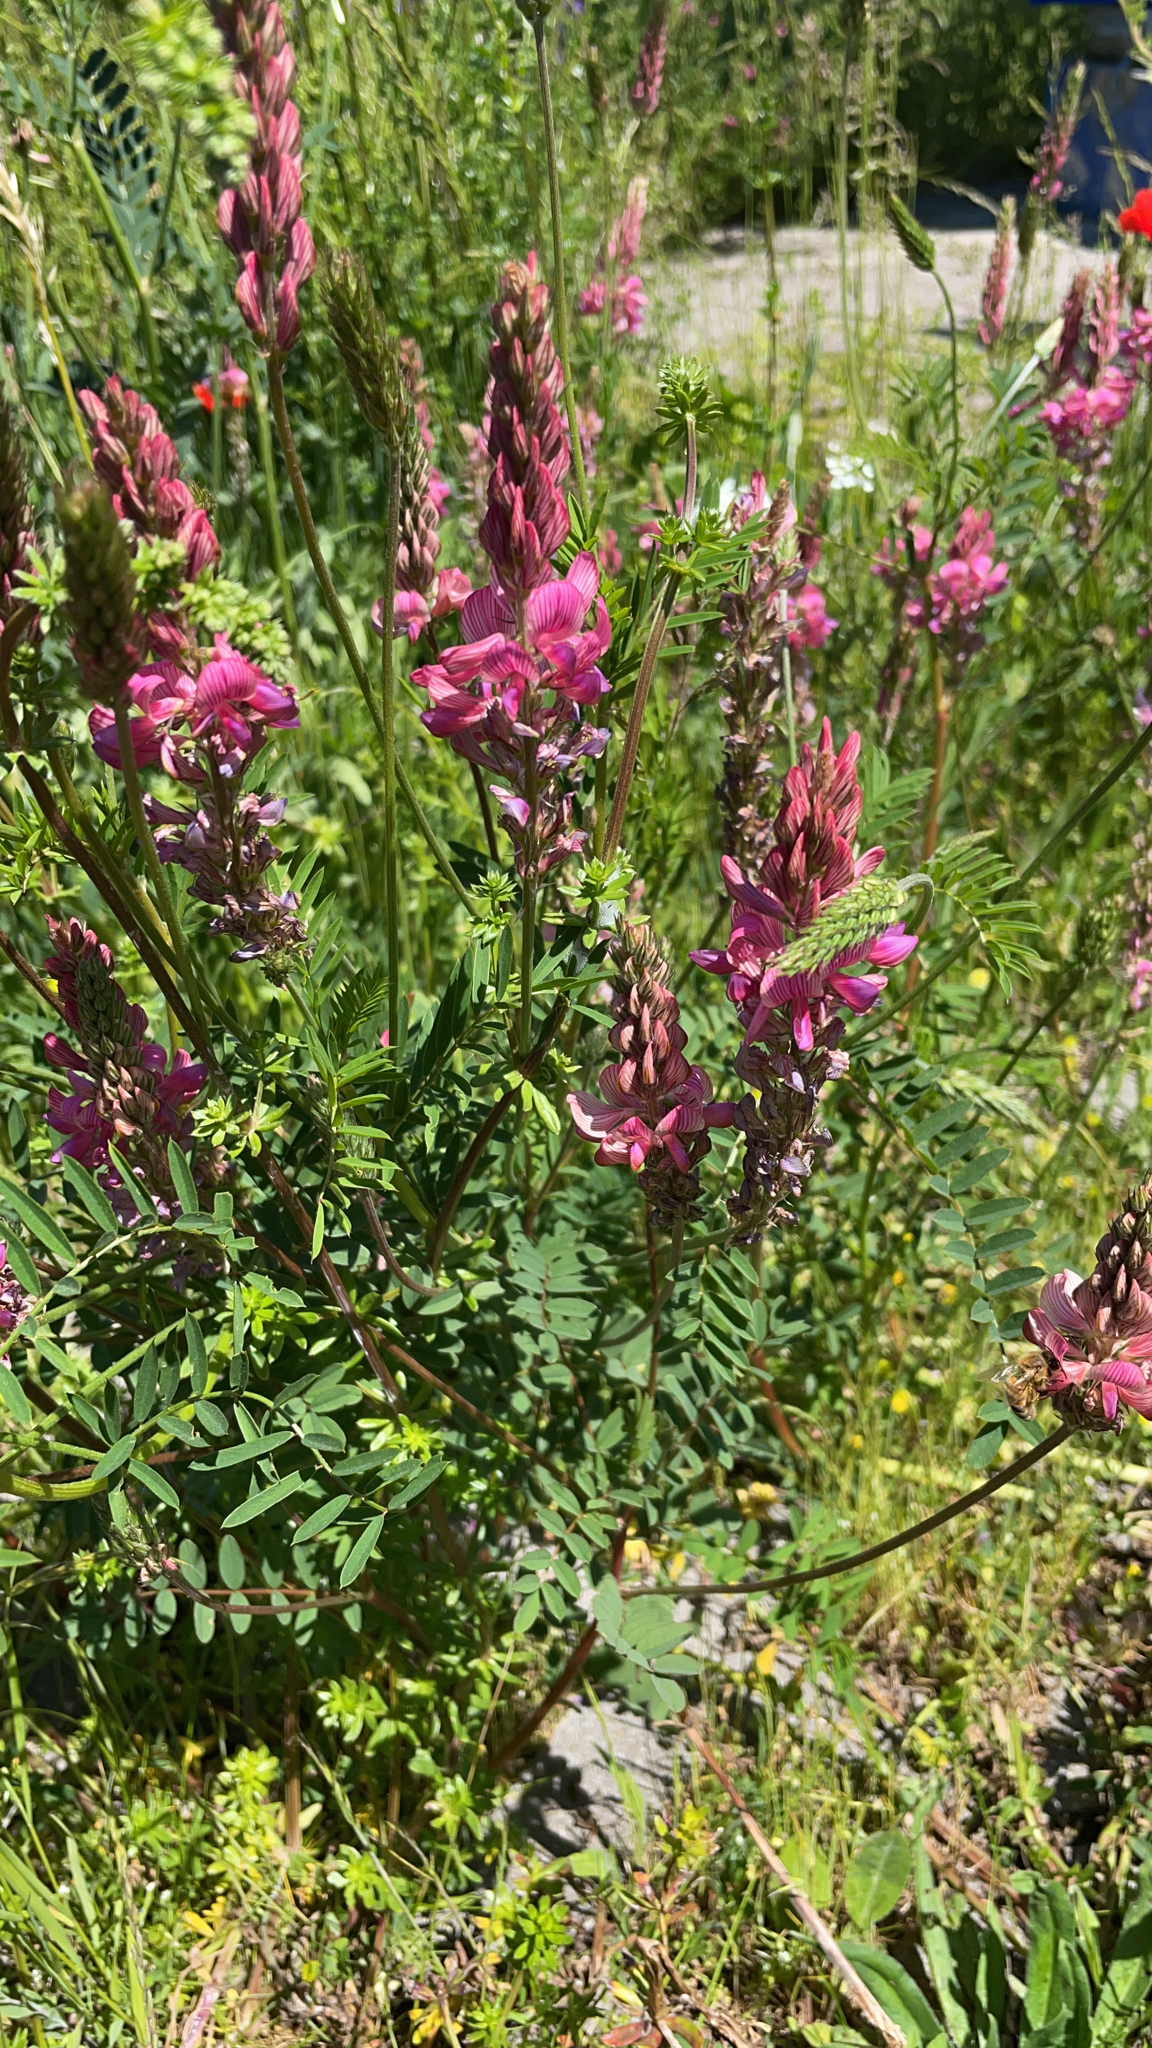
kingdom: Plantae
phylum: Tracheophyta
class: Magnoliopsida
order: Fabales
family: Fabaceae
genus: Onobrychis
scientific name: Onobrychis viciifolia
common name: Sainfoin
